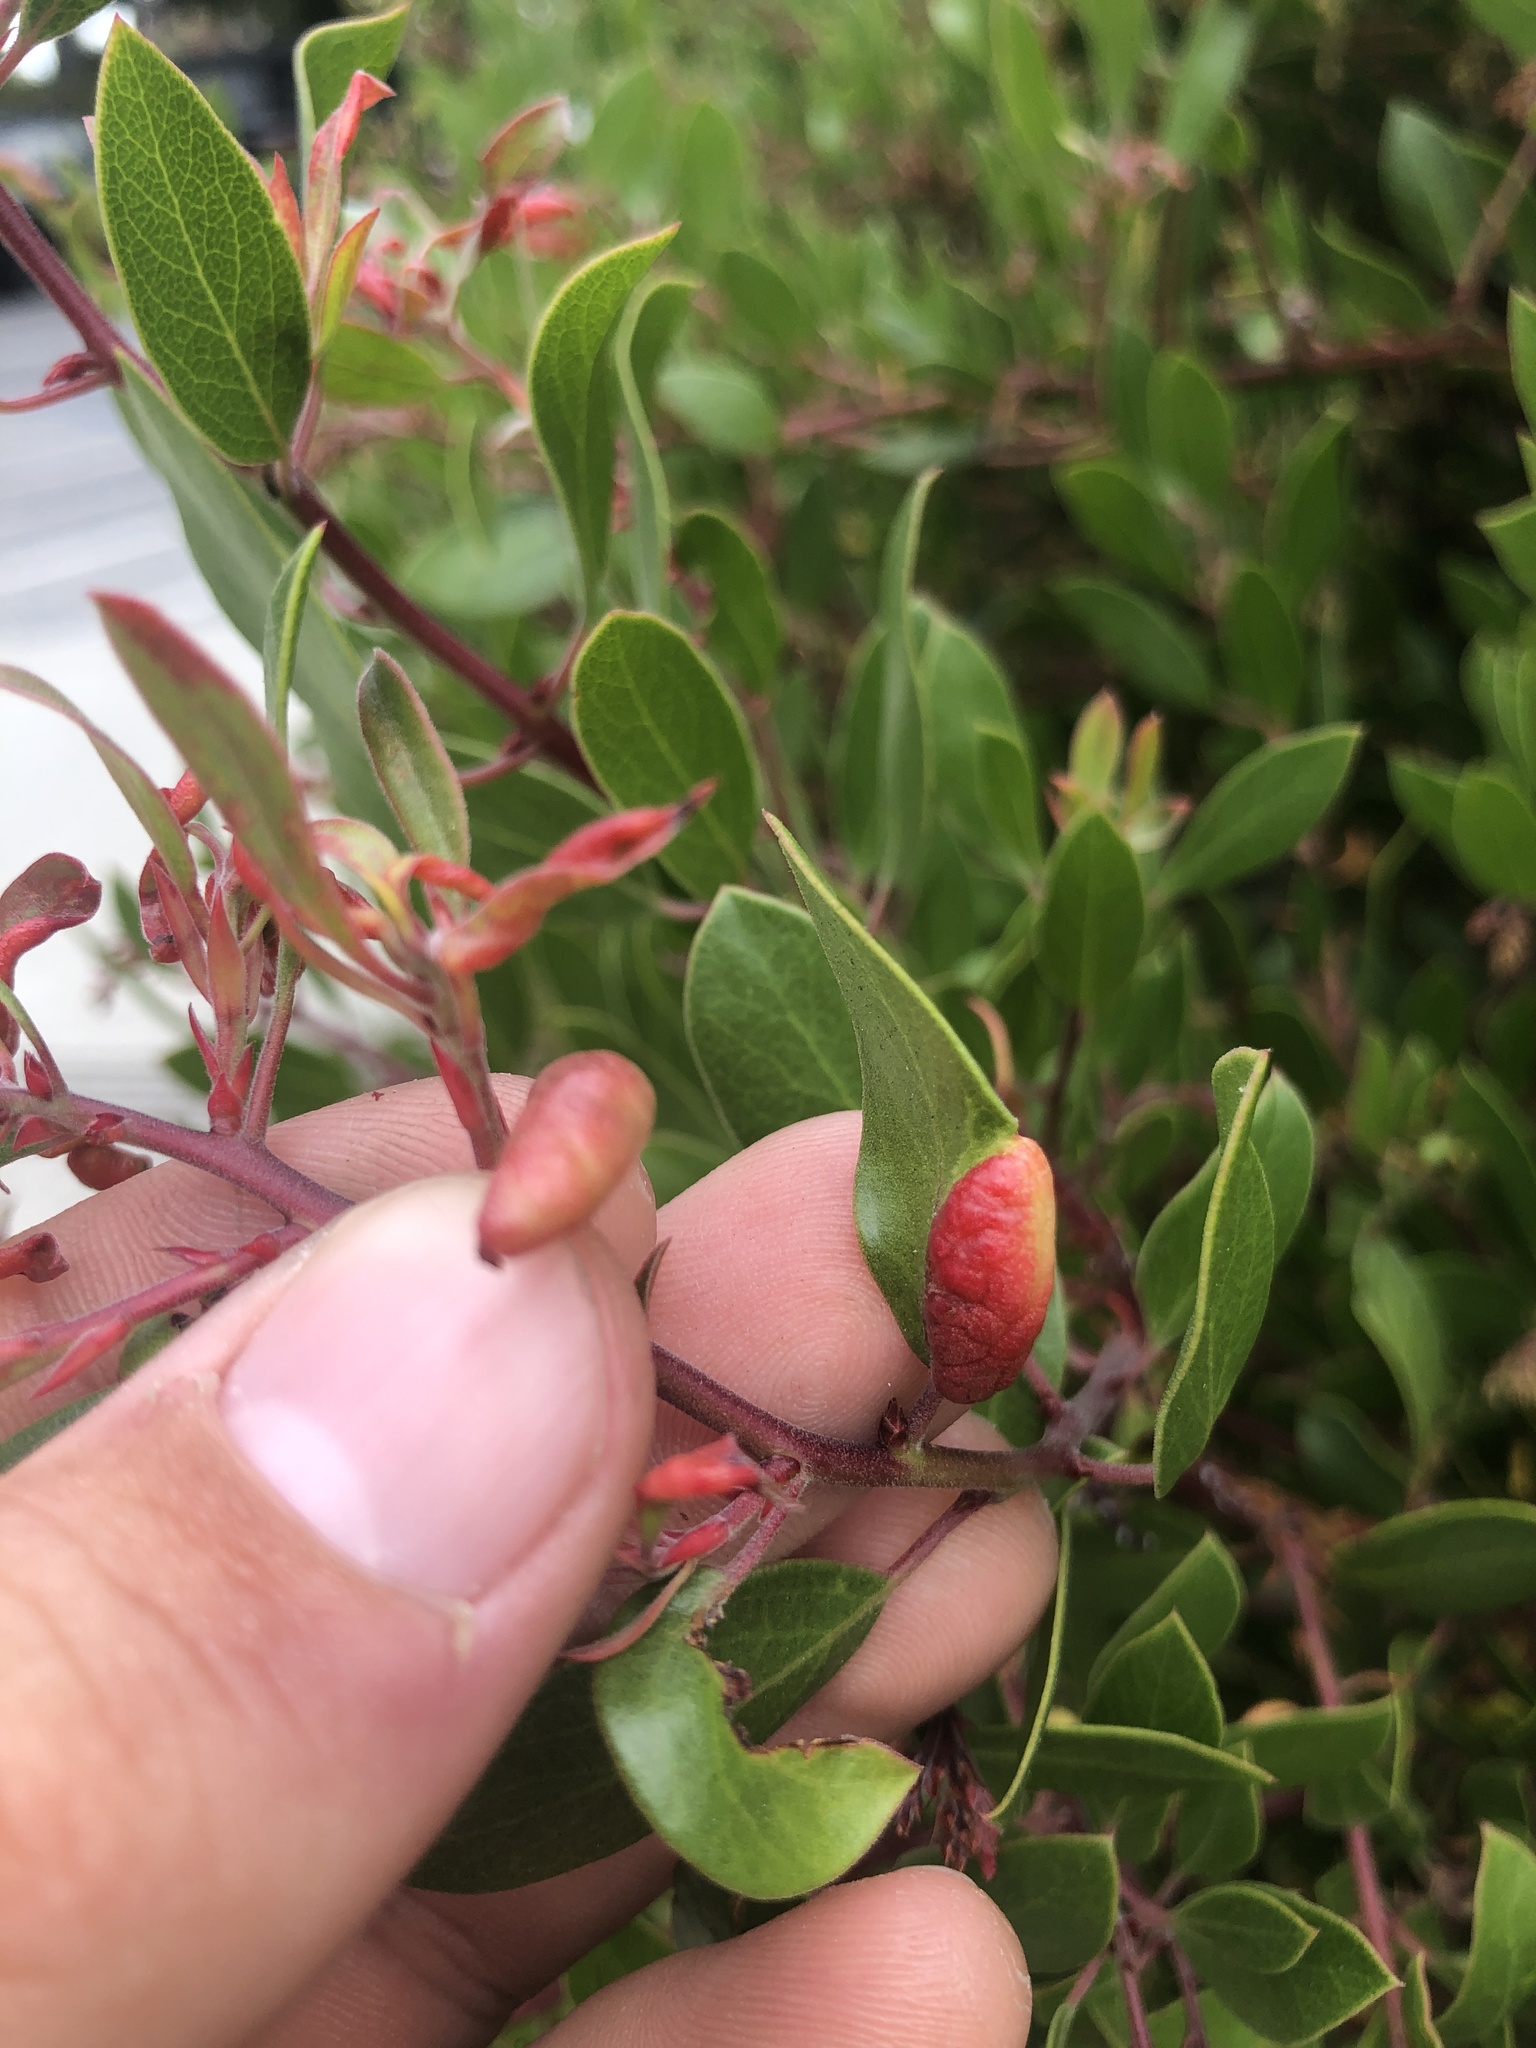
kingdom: Animalia
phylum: Arthropoda
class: Insecta
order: Hemiptera
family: Aphididae
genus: Tamalia
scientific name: Tamalia coweni
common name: Manzanita leafgall aphid
